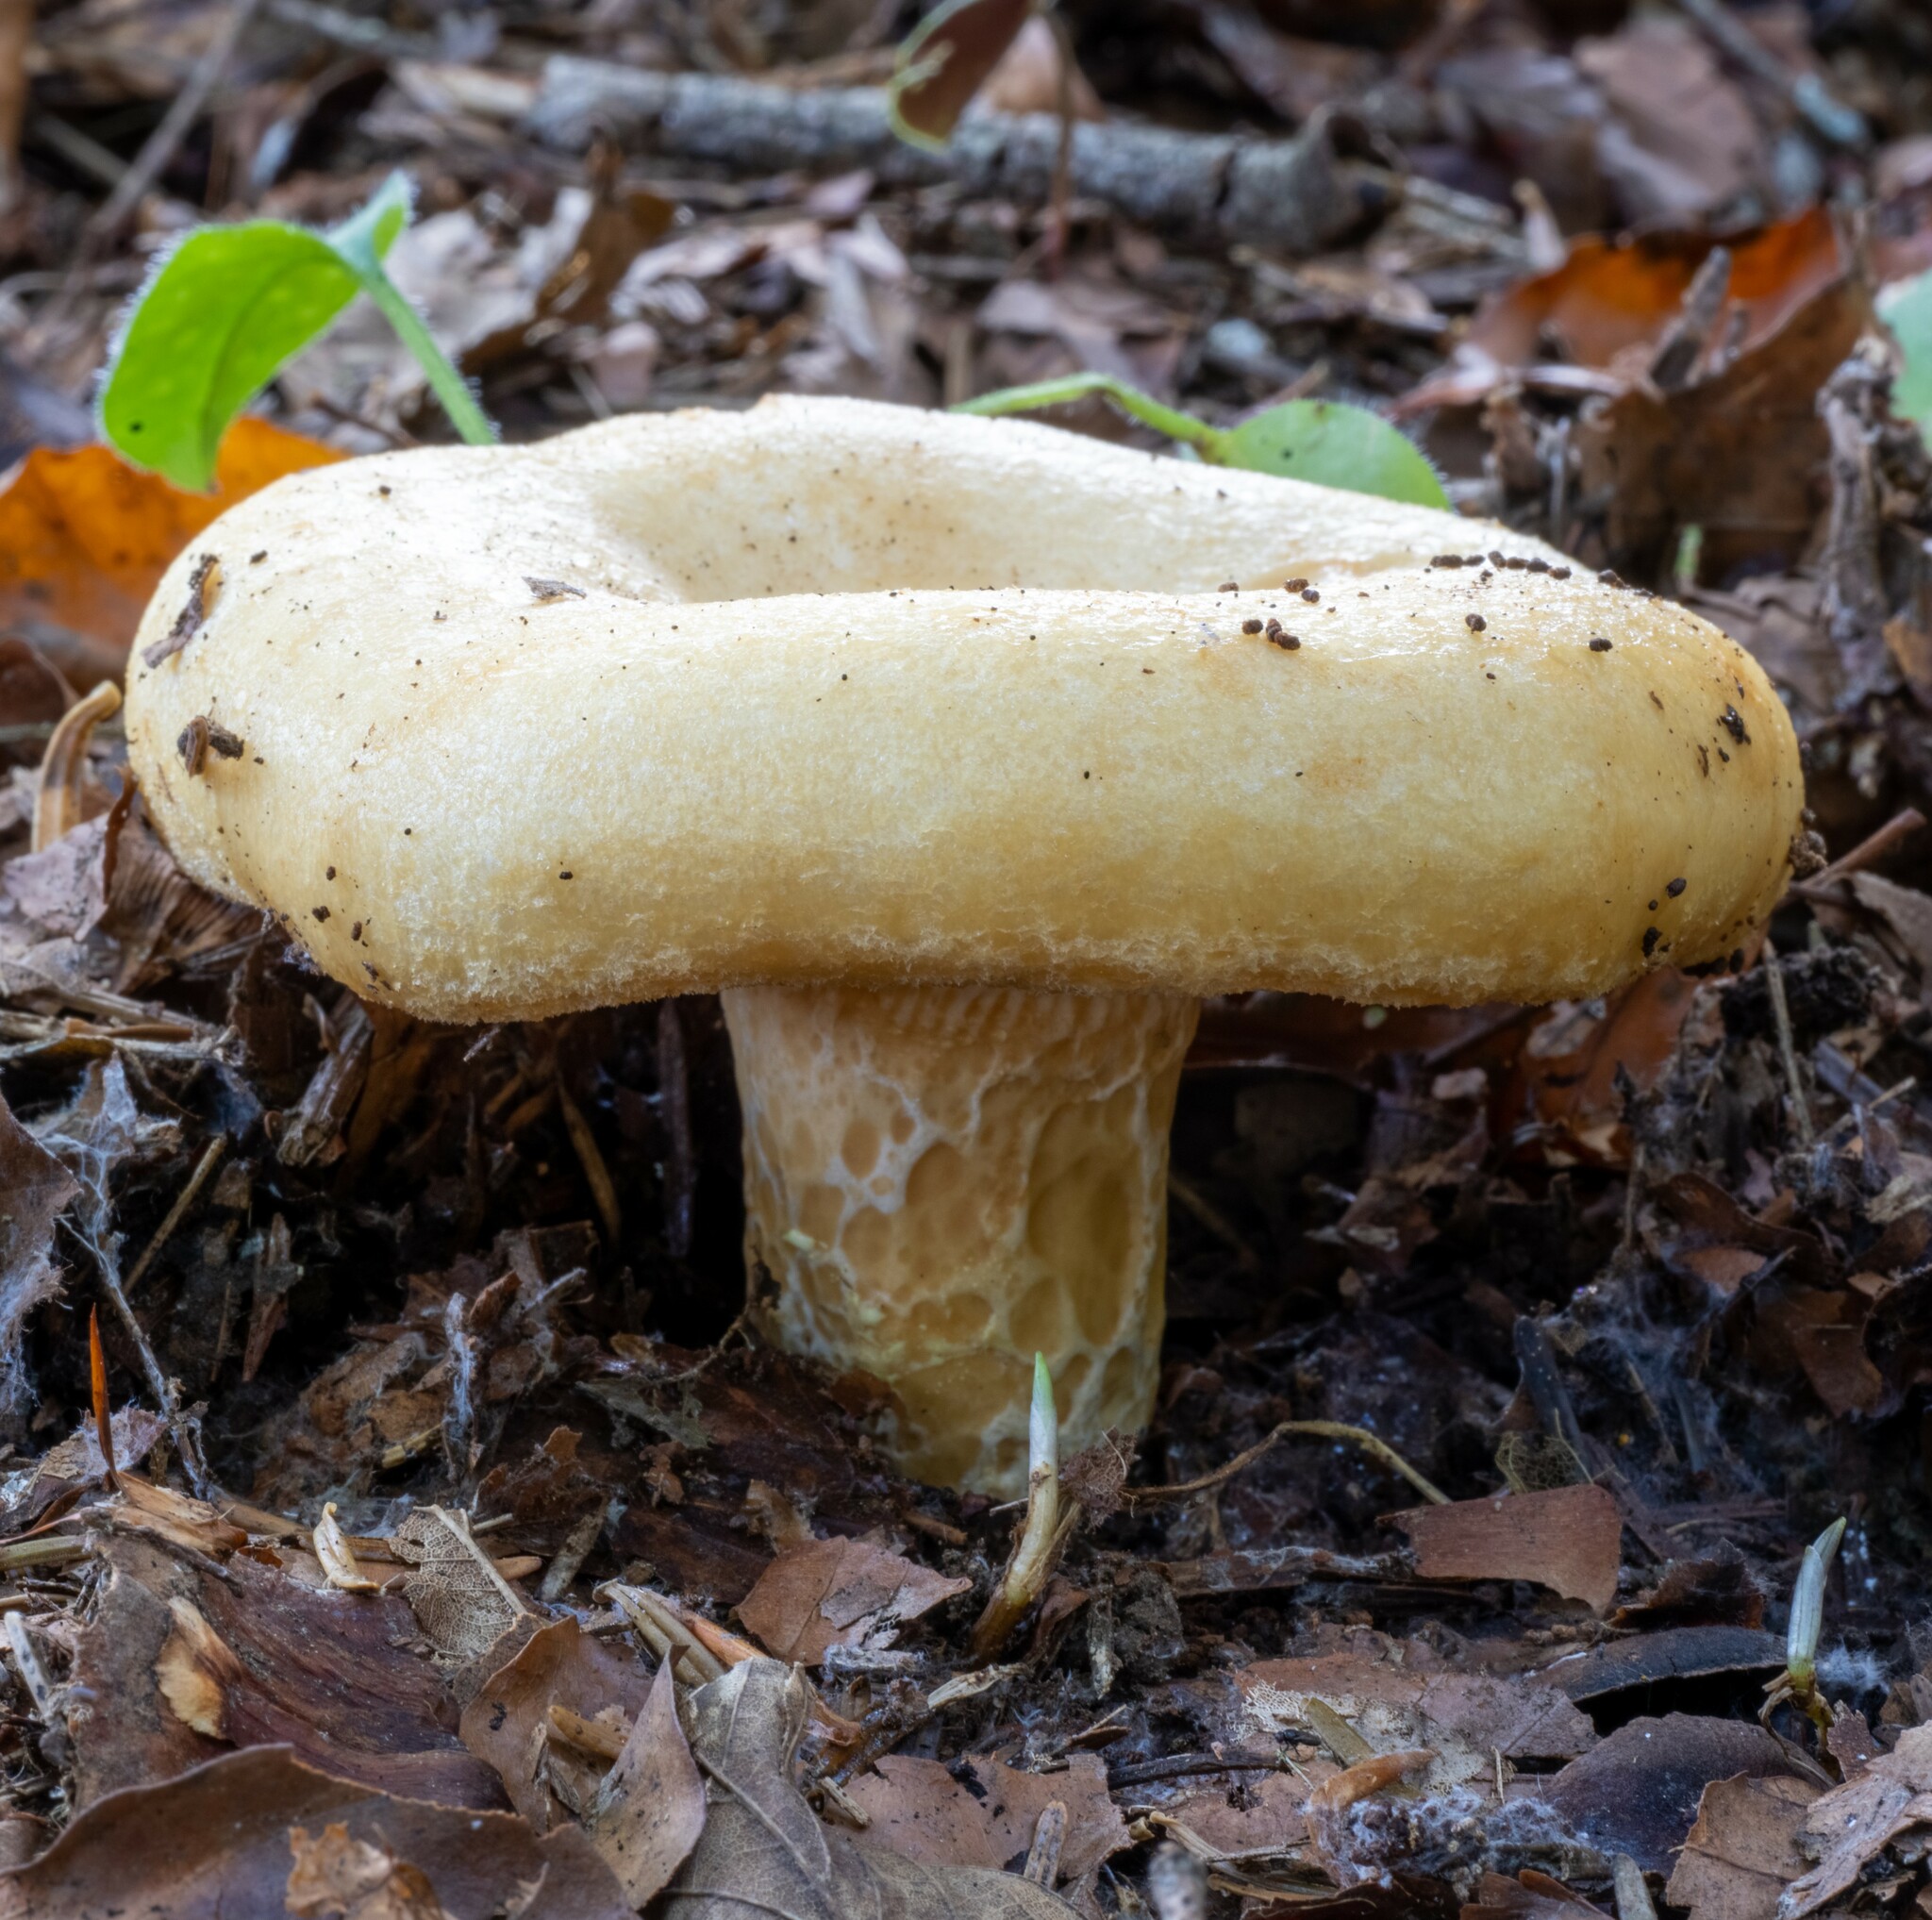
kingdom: Fungi
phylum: Basidiomycota
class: Agaricomycetes
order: Russulales
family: Russulaceae
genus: Lactarius
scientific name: Lactarius torminosus
